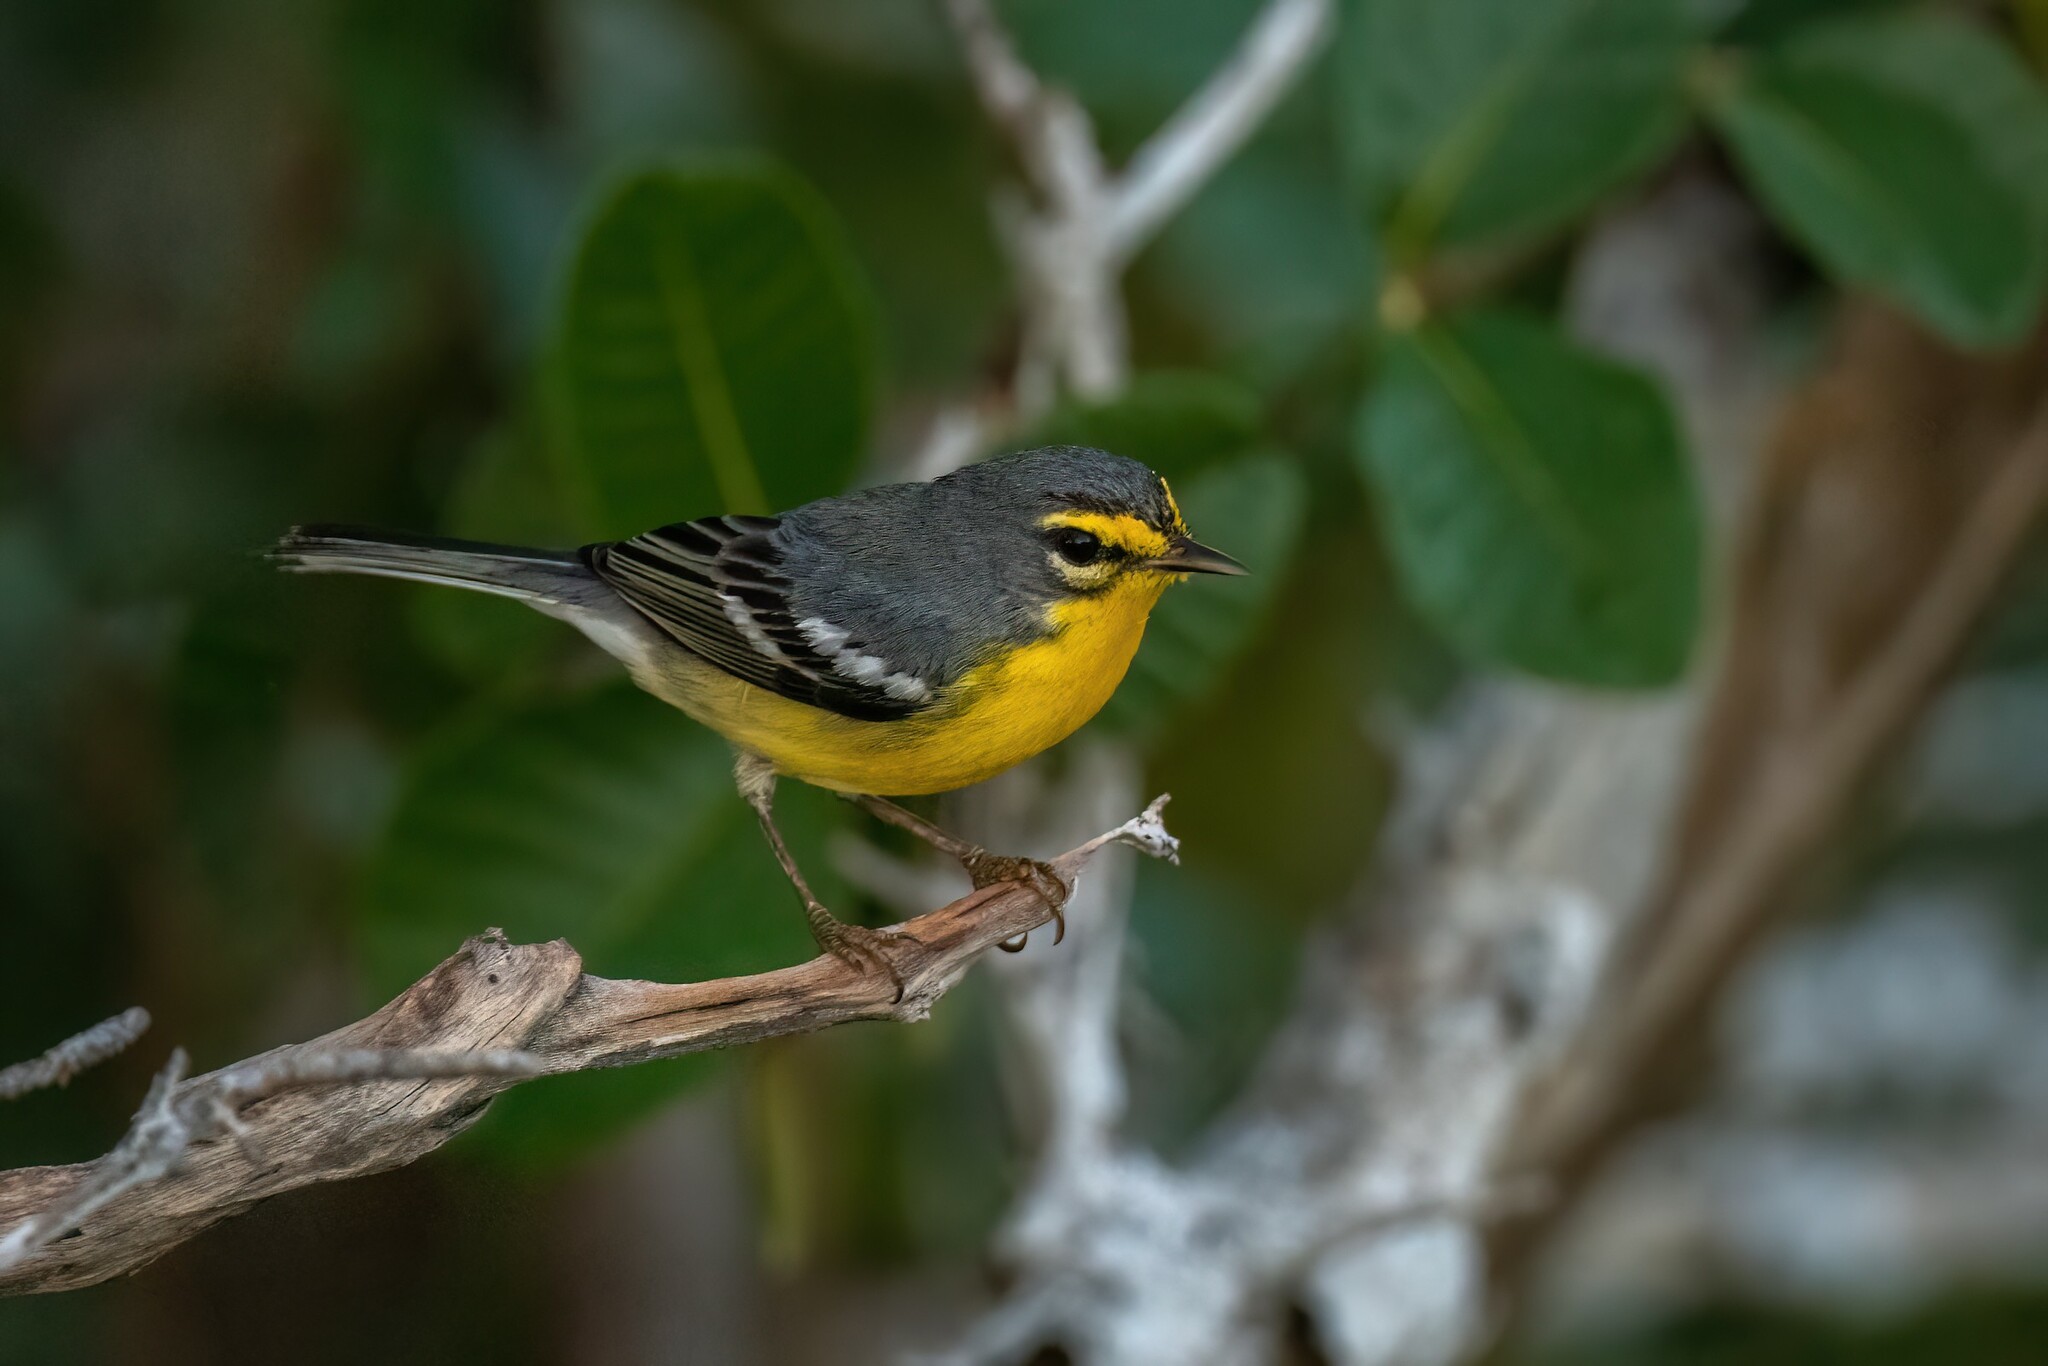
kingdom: Animalia
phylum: Chordata
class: Aves
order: Passeriformes
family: Parulidae
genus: Setophaga
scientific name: Setophaga adelaidae
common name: Adelaide's warbler
